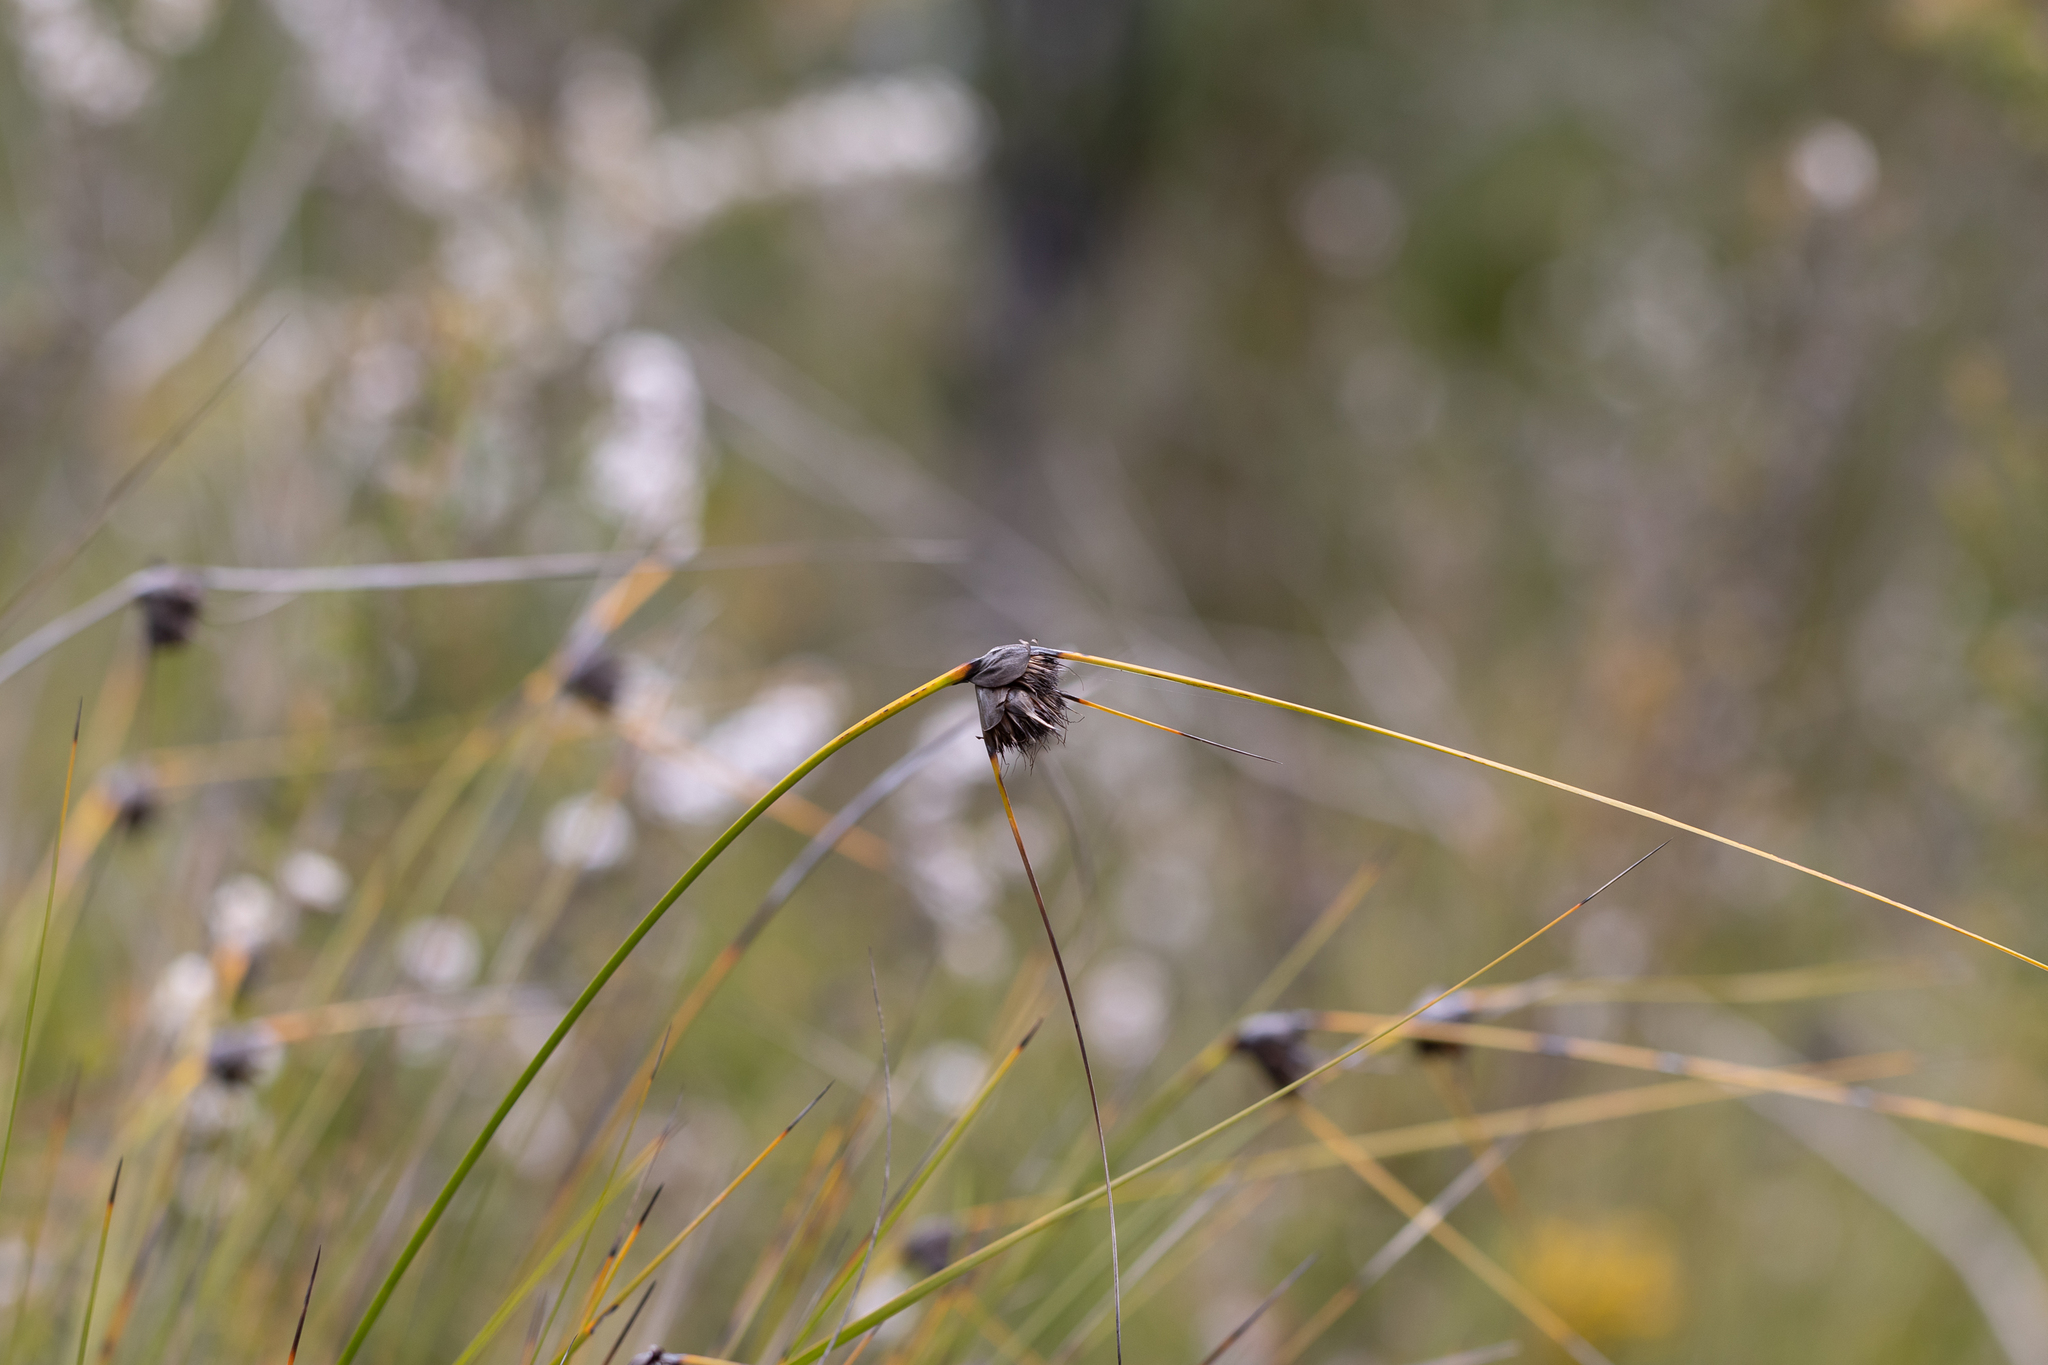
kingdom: Plantae
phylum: Tracheophyta
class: Liliopsida
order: Poales
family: Cyperaceae
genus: Mesomelaena
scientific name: Mesomelaena tetragona
